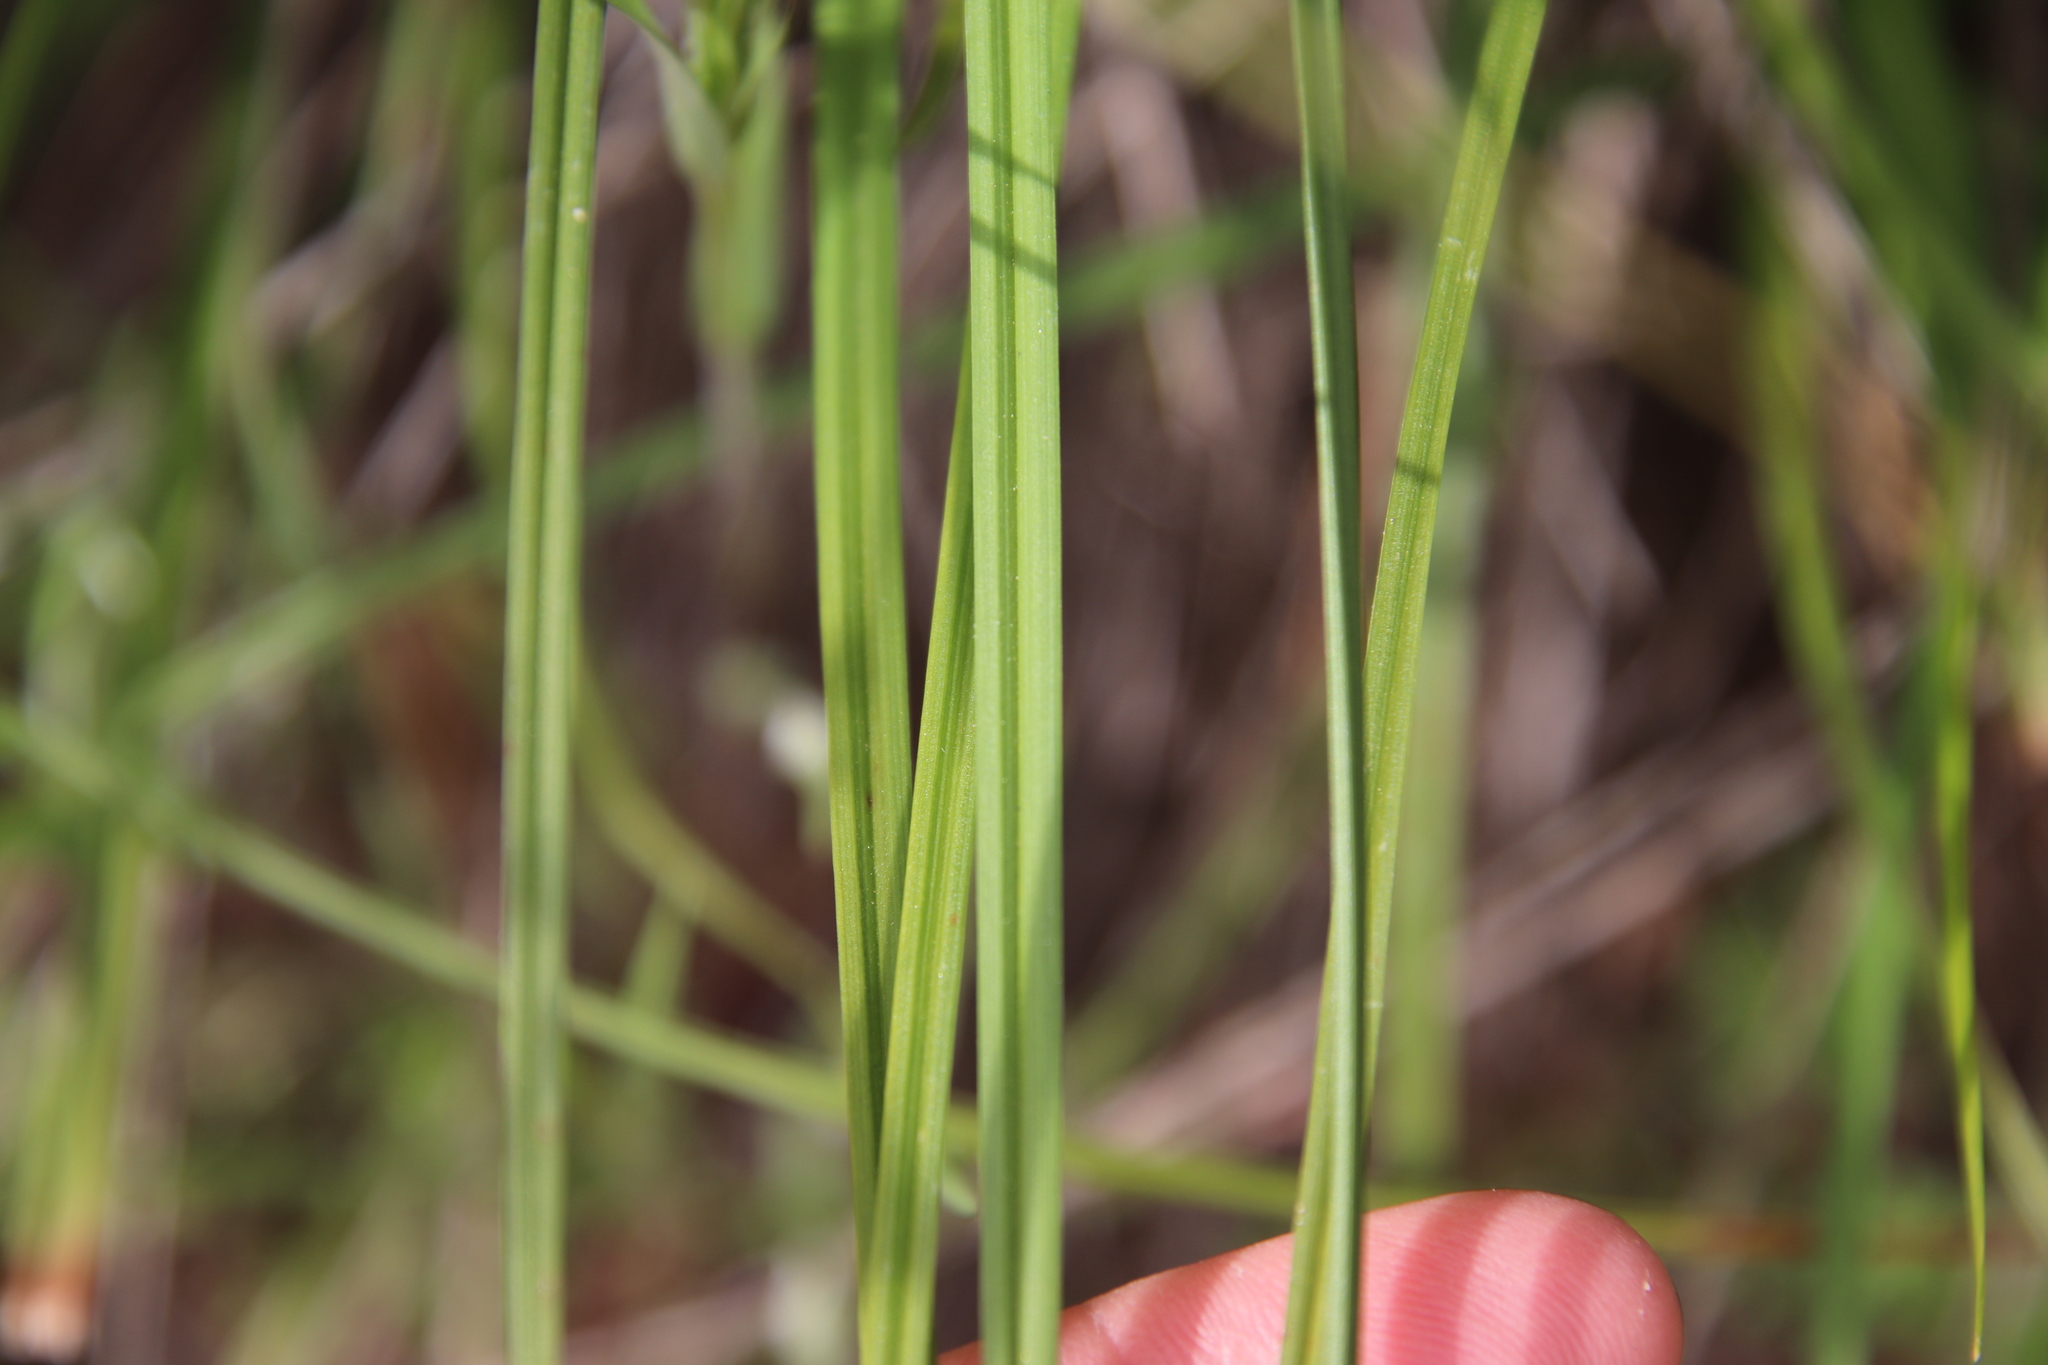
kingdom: Plantae
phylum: Tracheophyta
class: Liliopsida
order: Poales
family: Cyperaceae
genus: Carex
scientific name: Carex triquetra
